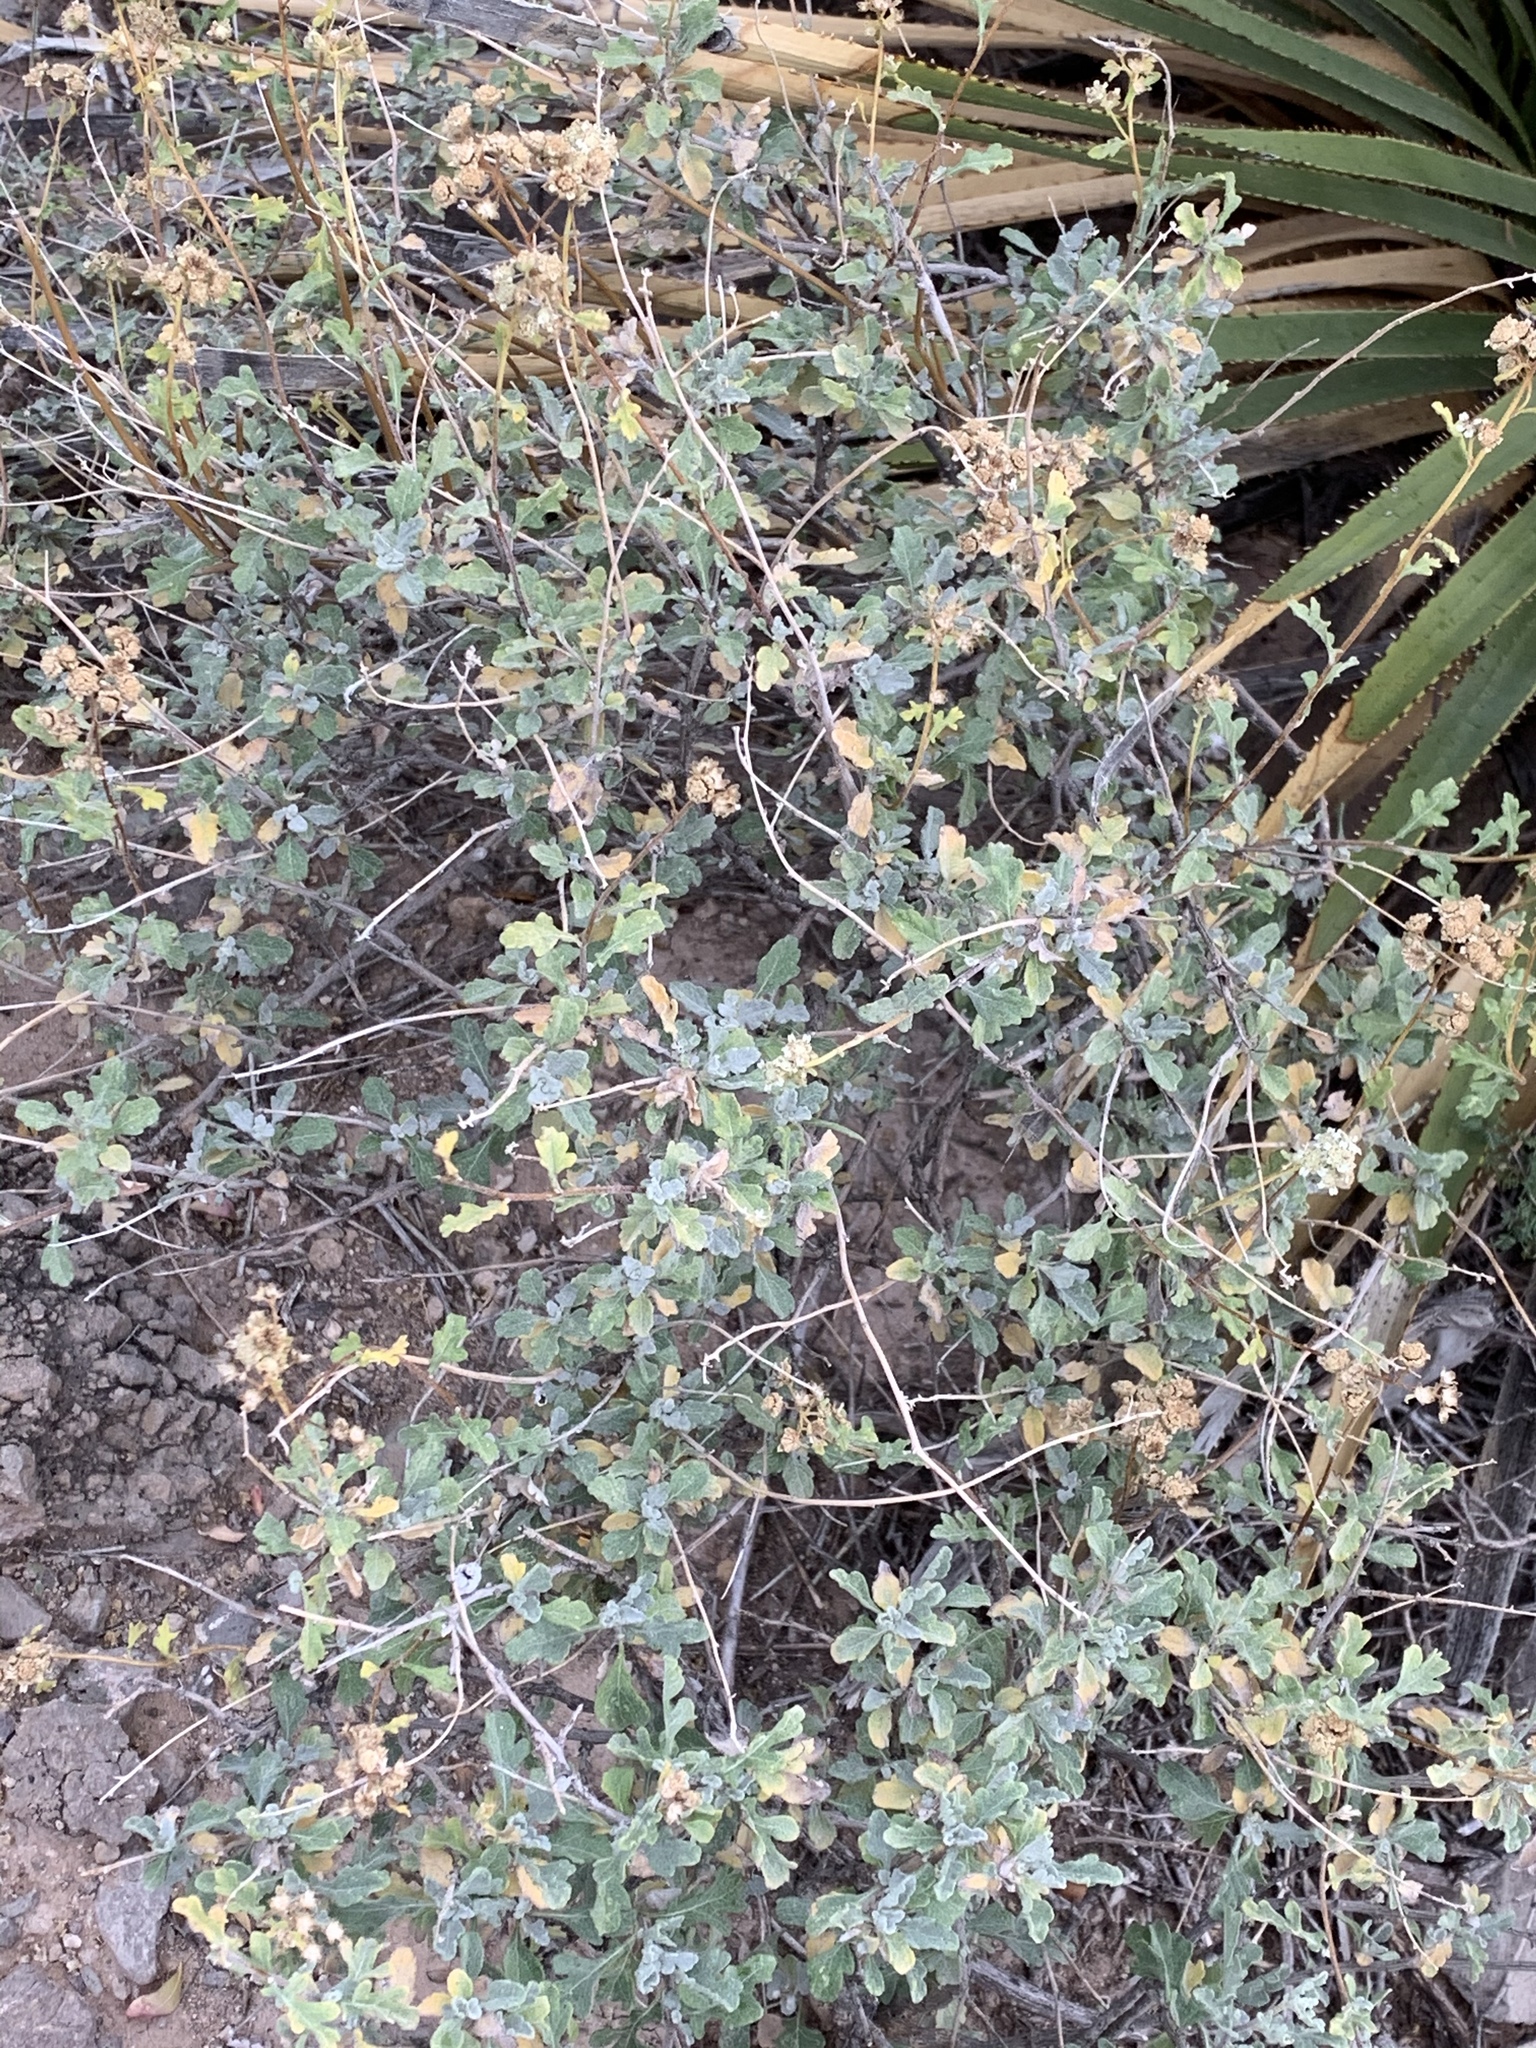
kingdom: Plantae
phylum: Tracheophyta
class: Magnoliopsida
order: Asterales
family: Asteraceae
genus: Parthenium
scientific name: Parthenium incanum
